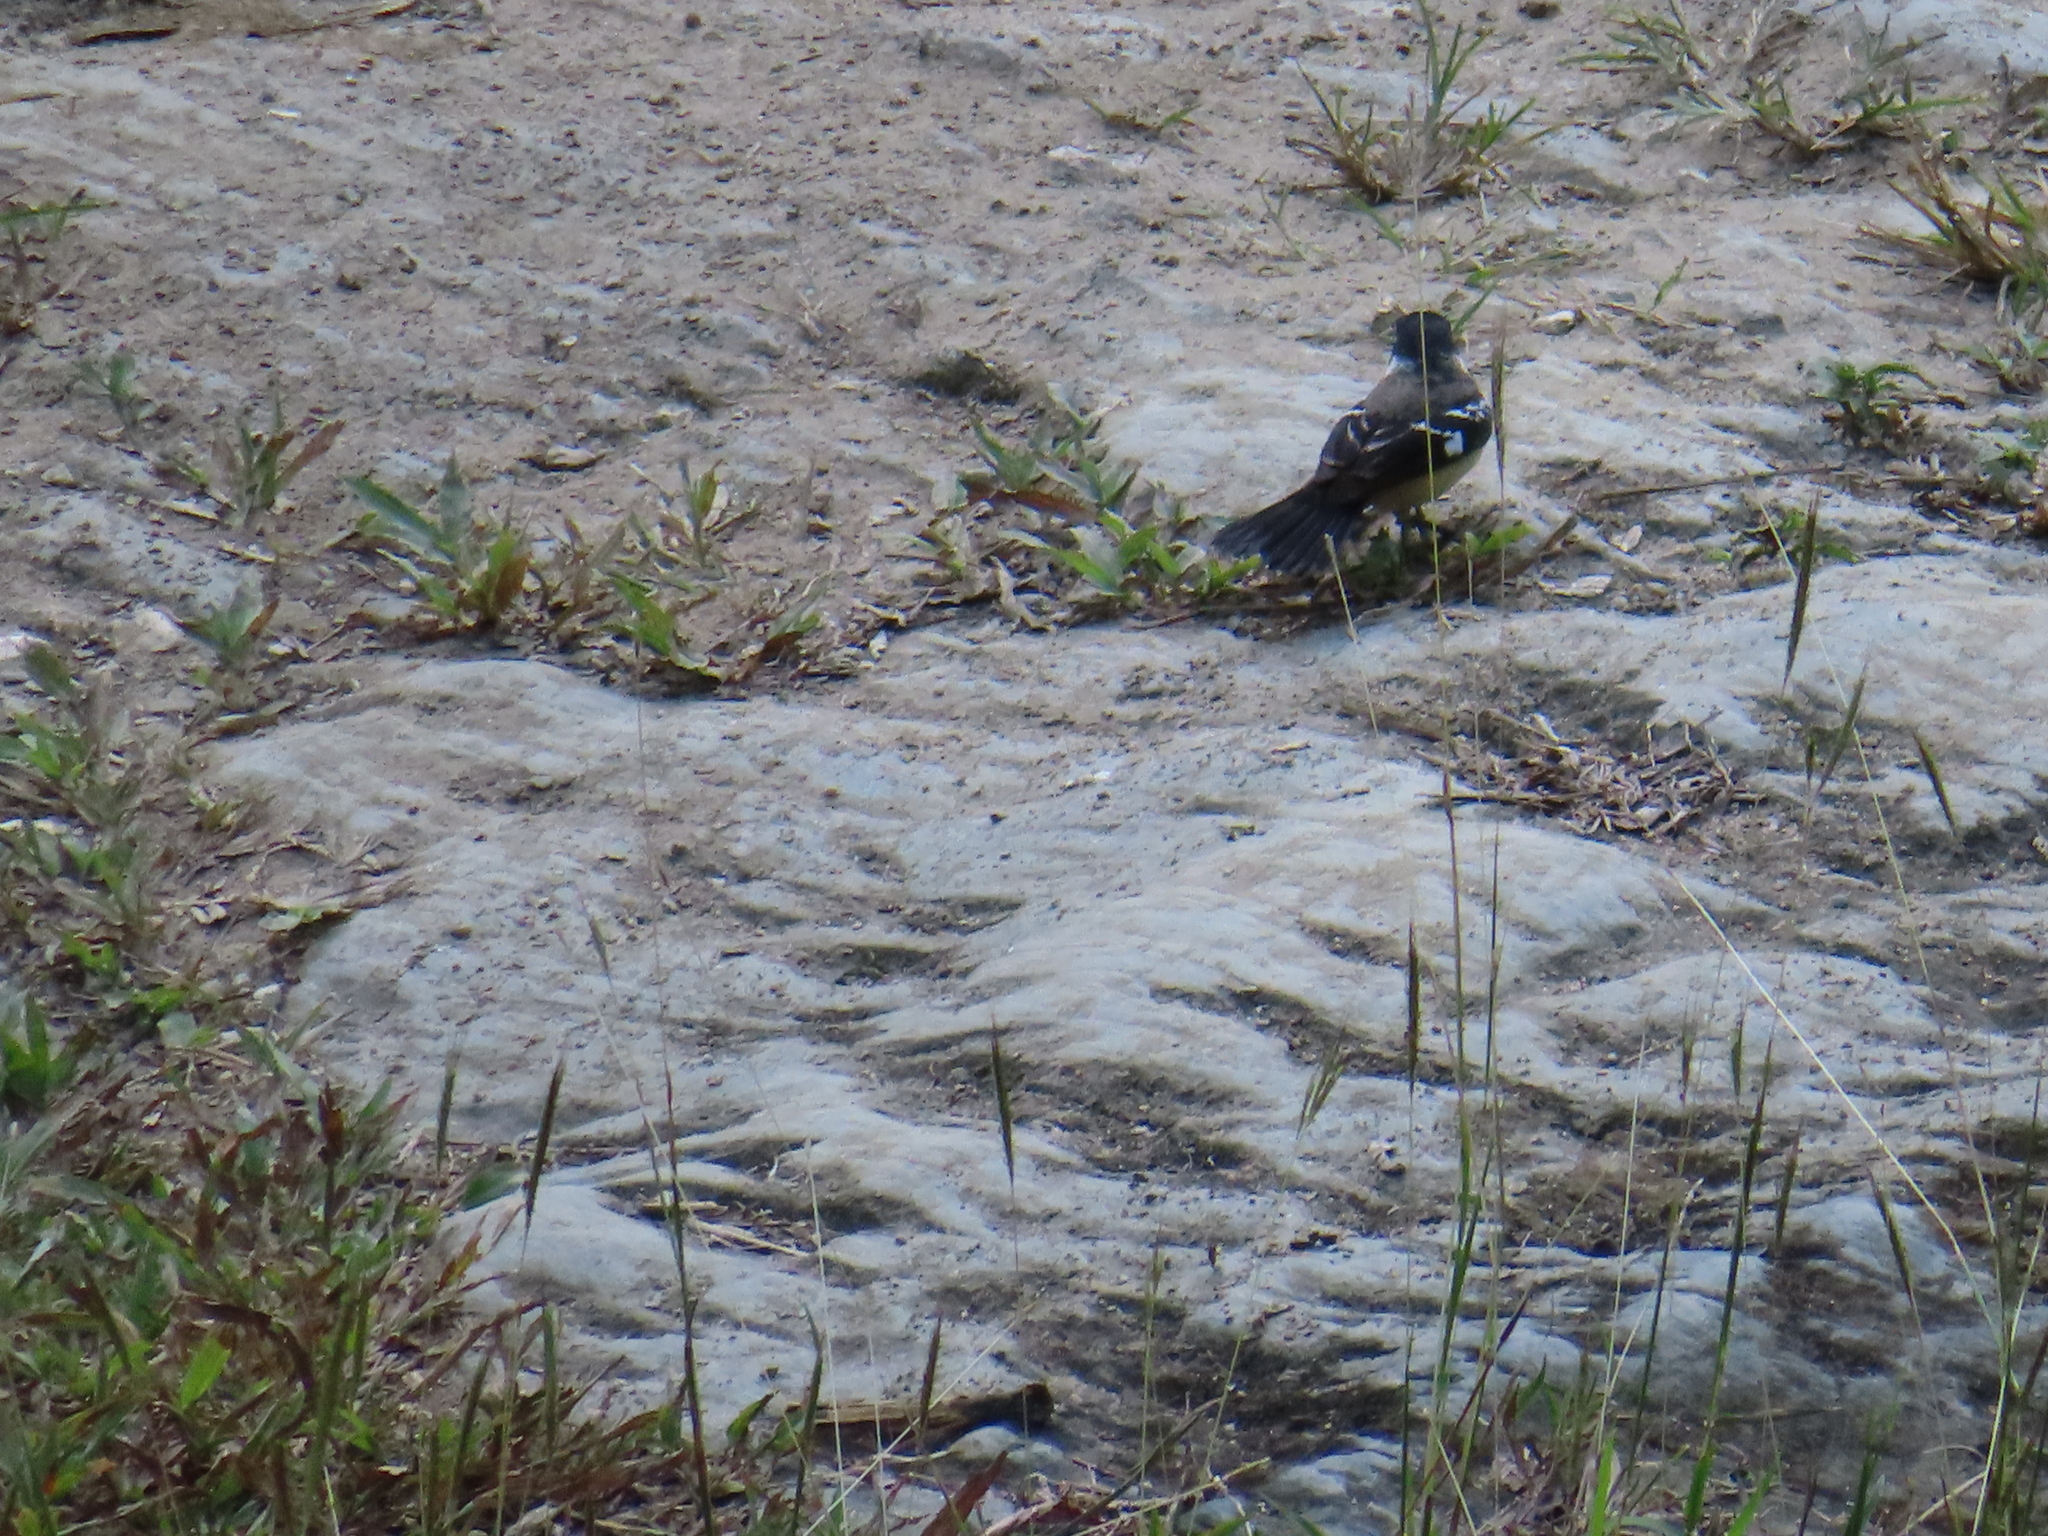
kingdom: Animalia
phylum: Chordata
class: Aves
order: Passeriformes
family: Thraupidae
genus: Sporophila
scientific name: Sporophila morelleti
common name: Morelet's seedeater
